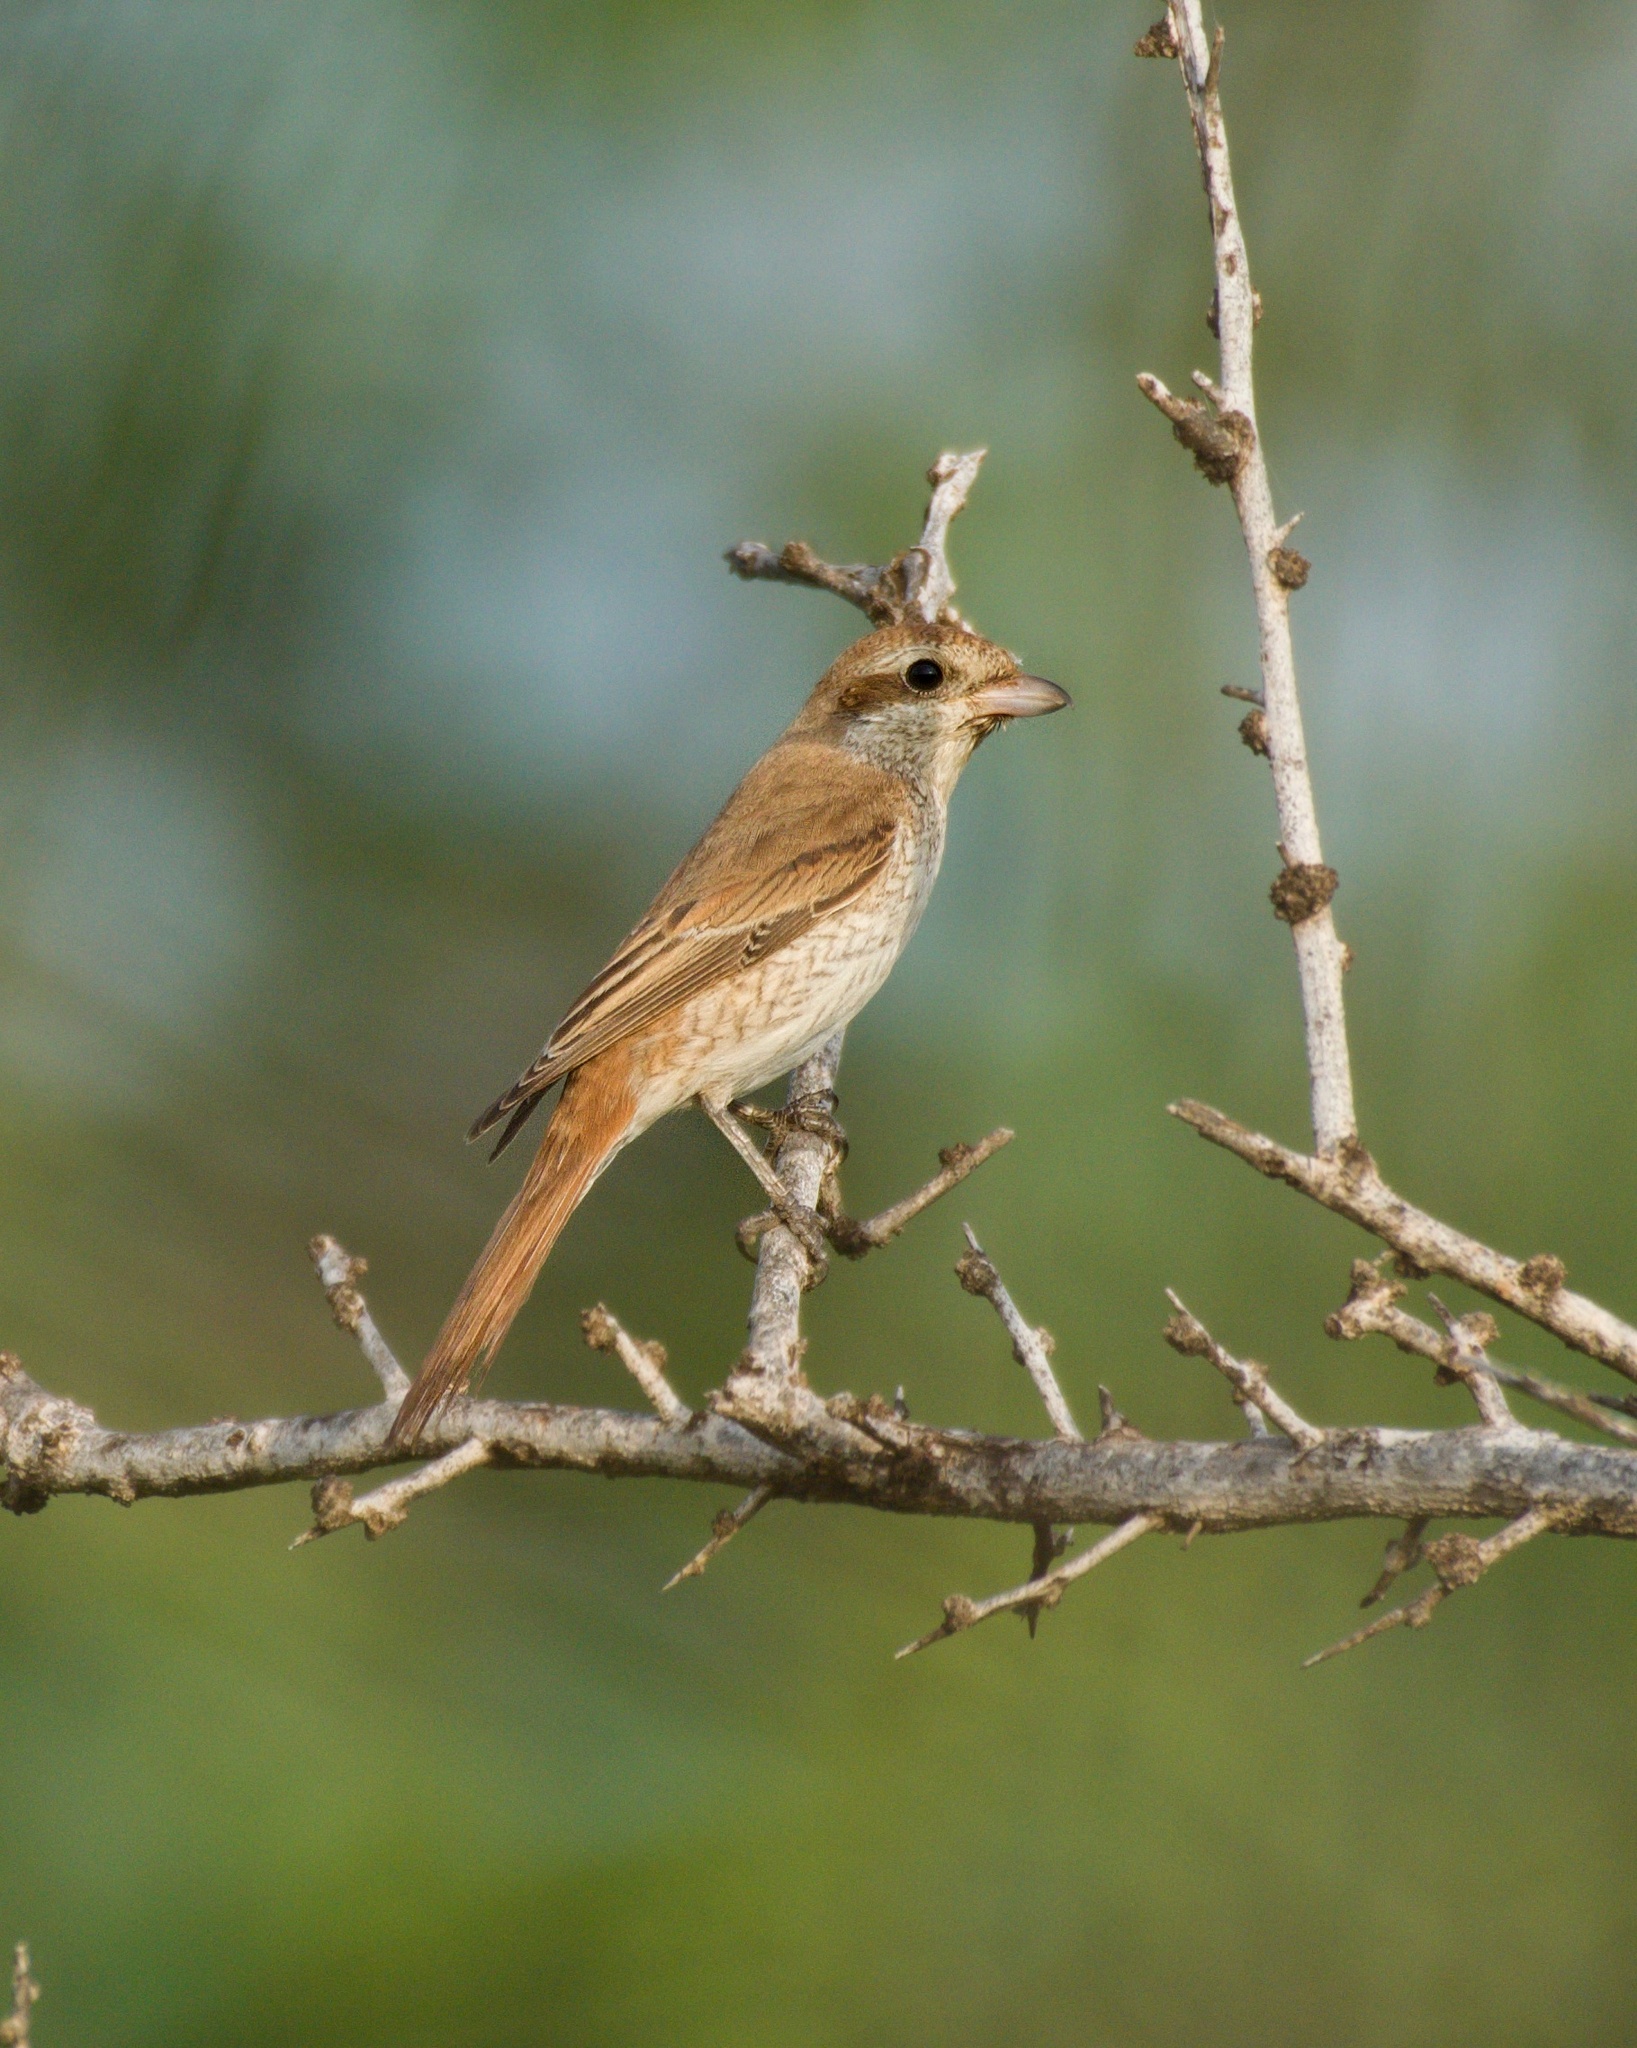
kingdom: Animalia
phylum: Chordata
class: Aves
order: Passeriformes
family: Laniidae
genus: Lanius
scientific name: Lanius phoenicuroides
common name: Red-tailed shrike
